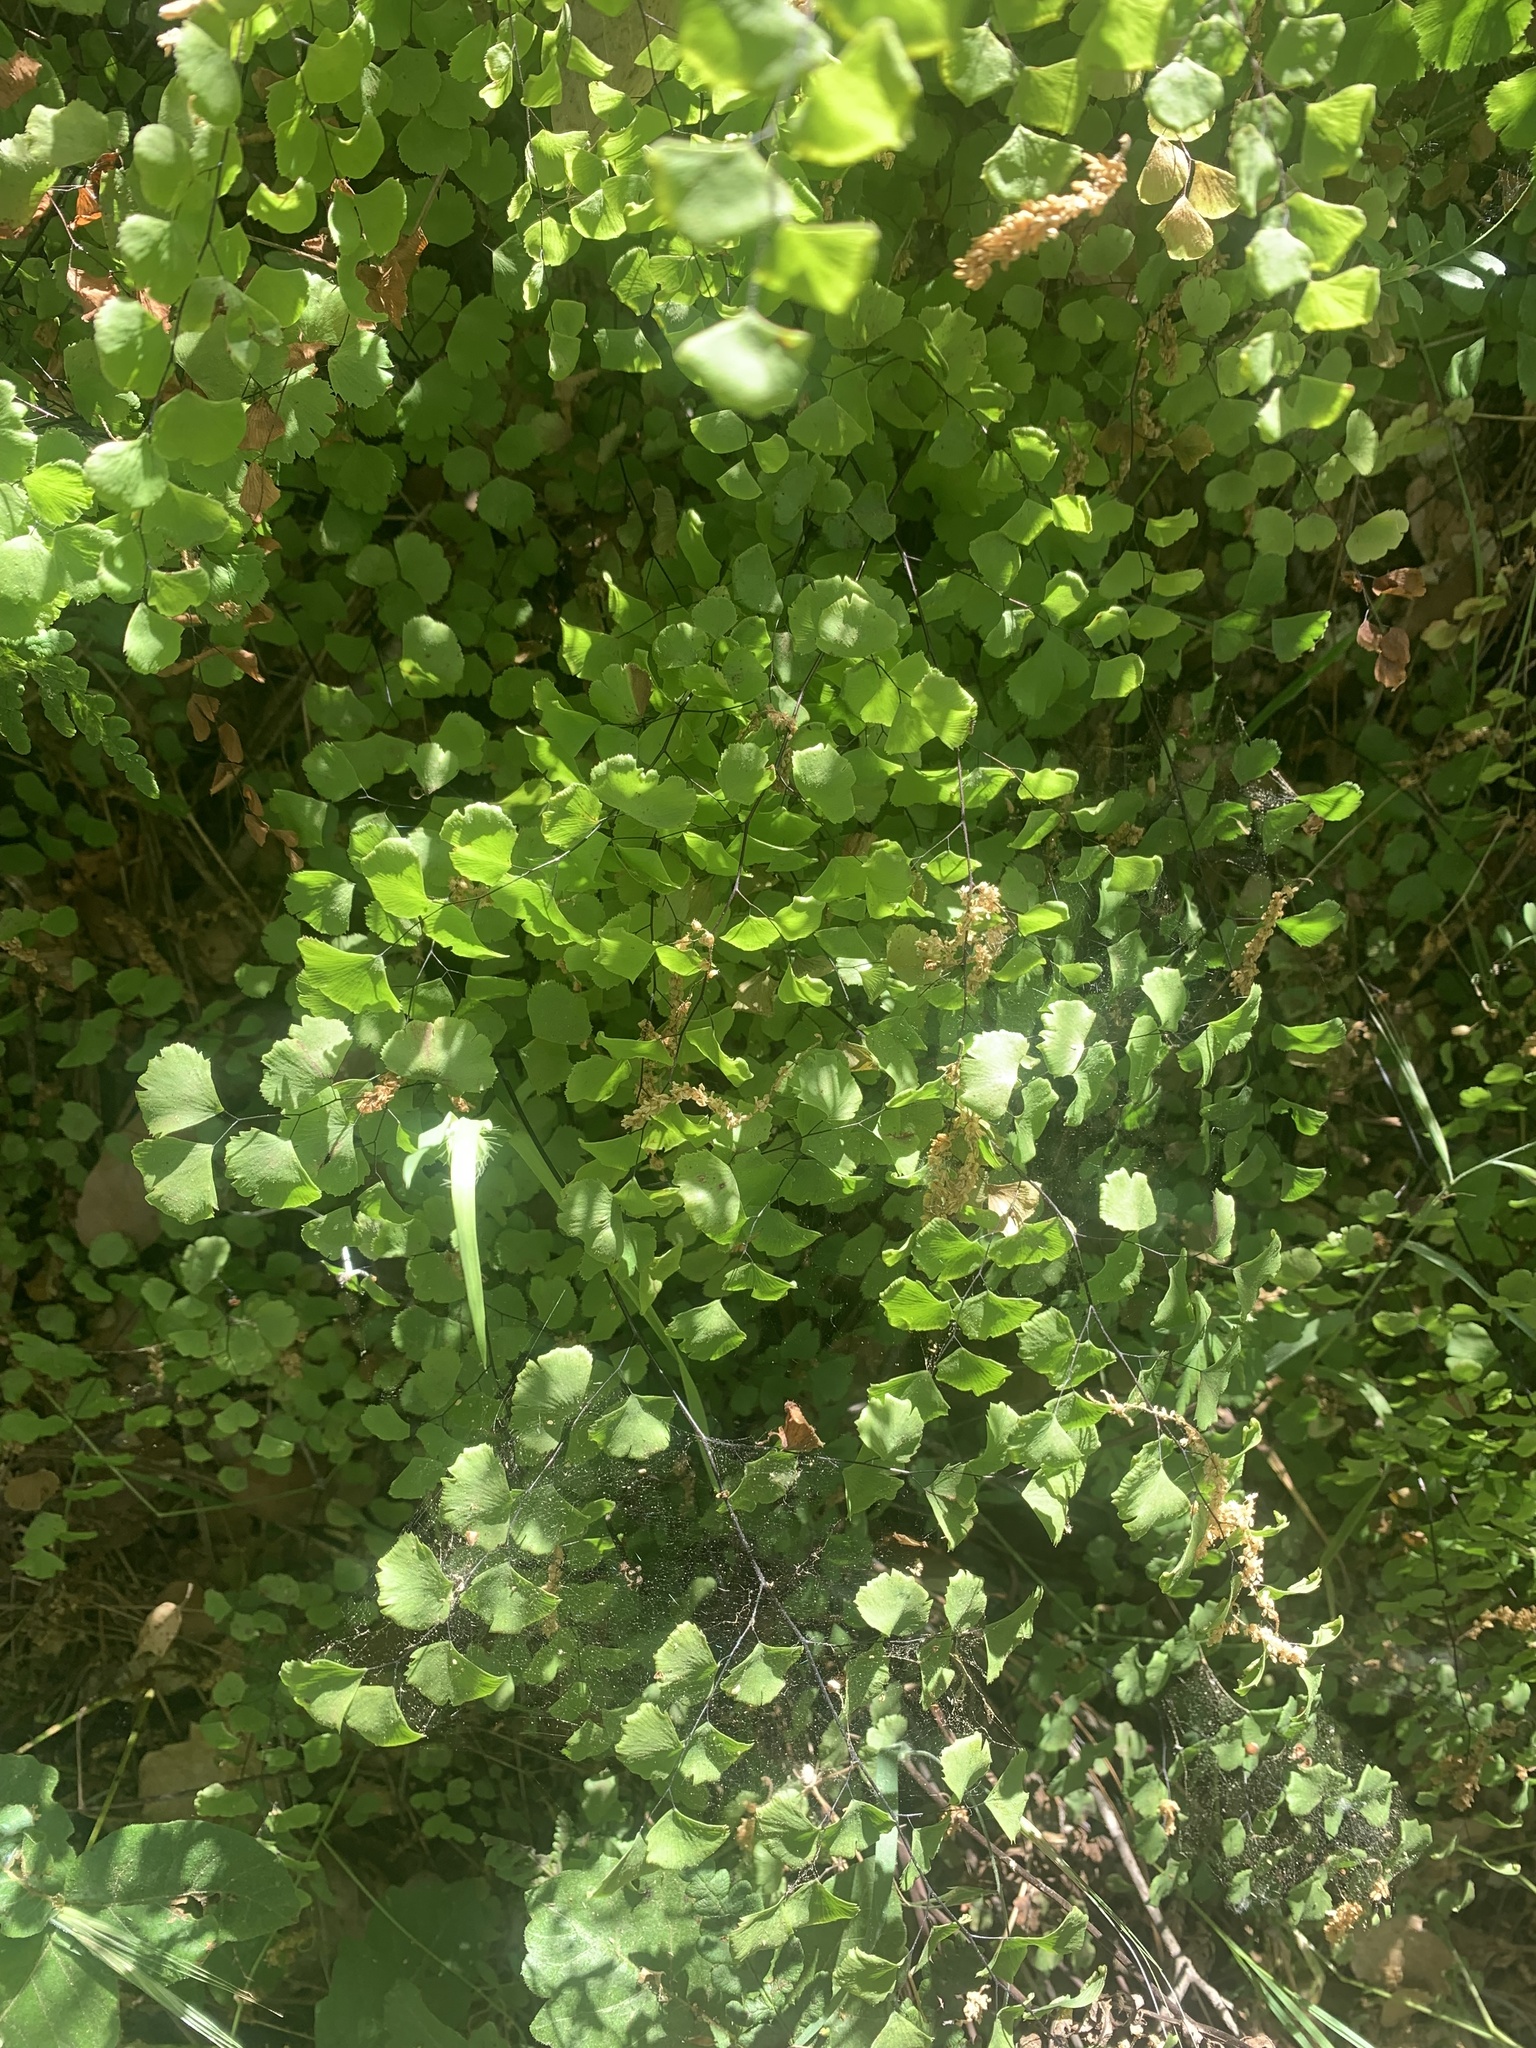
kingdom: Plantae
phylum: Tracheophyta
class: Polypodiopsida
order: Polypodiales
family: Pteridaceae
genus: Adiantum
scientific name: Adiantum jordanii
